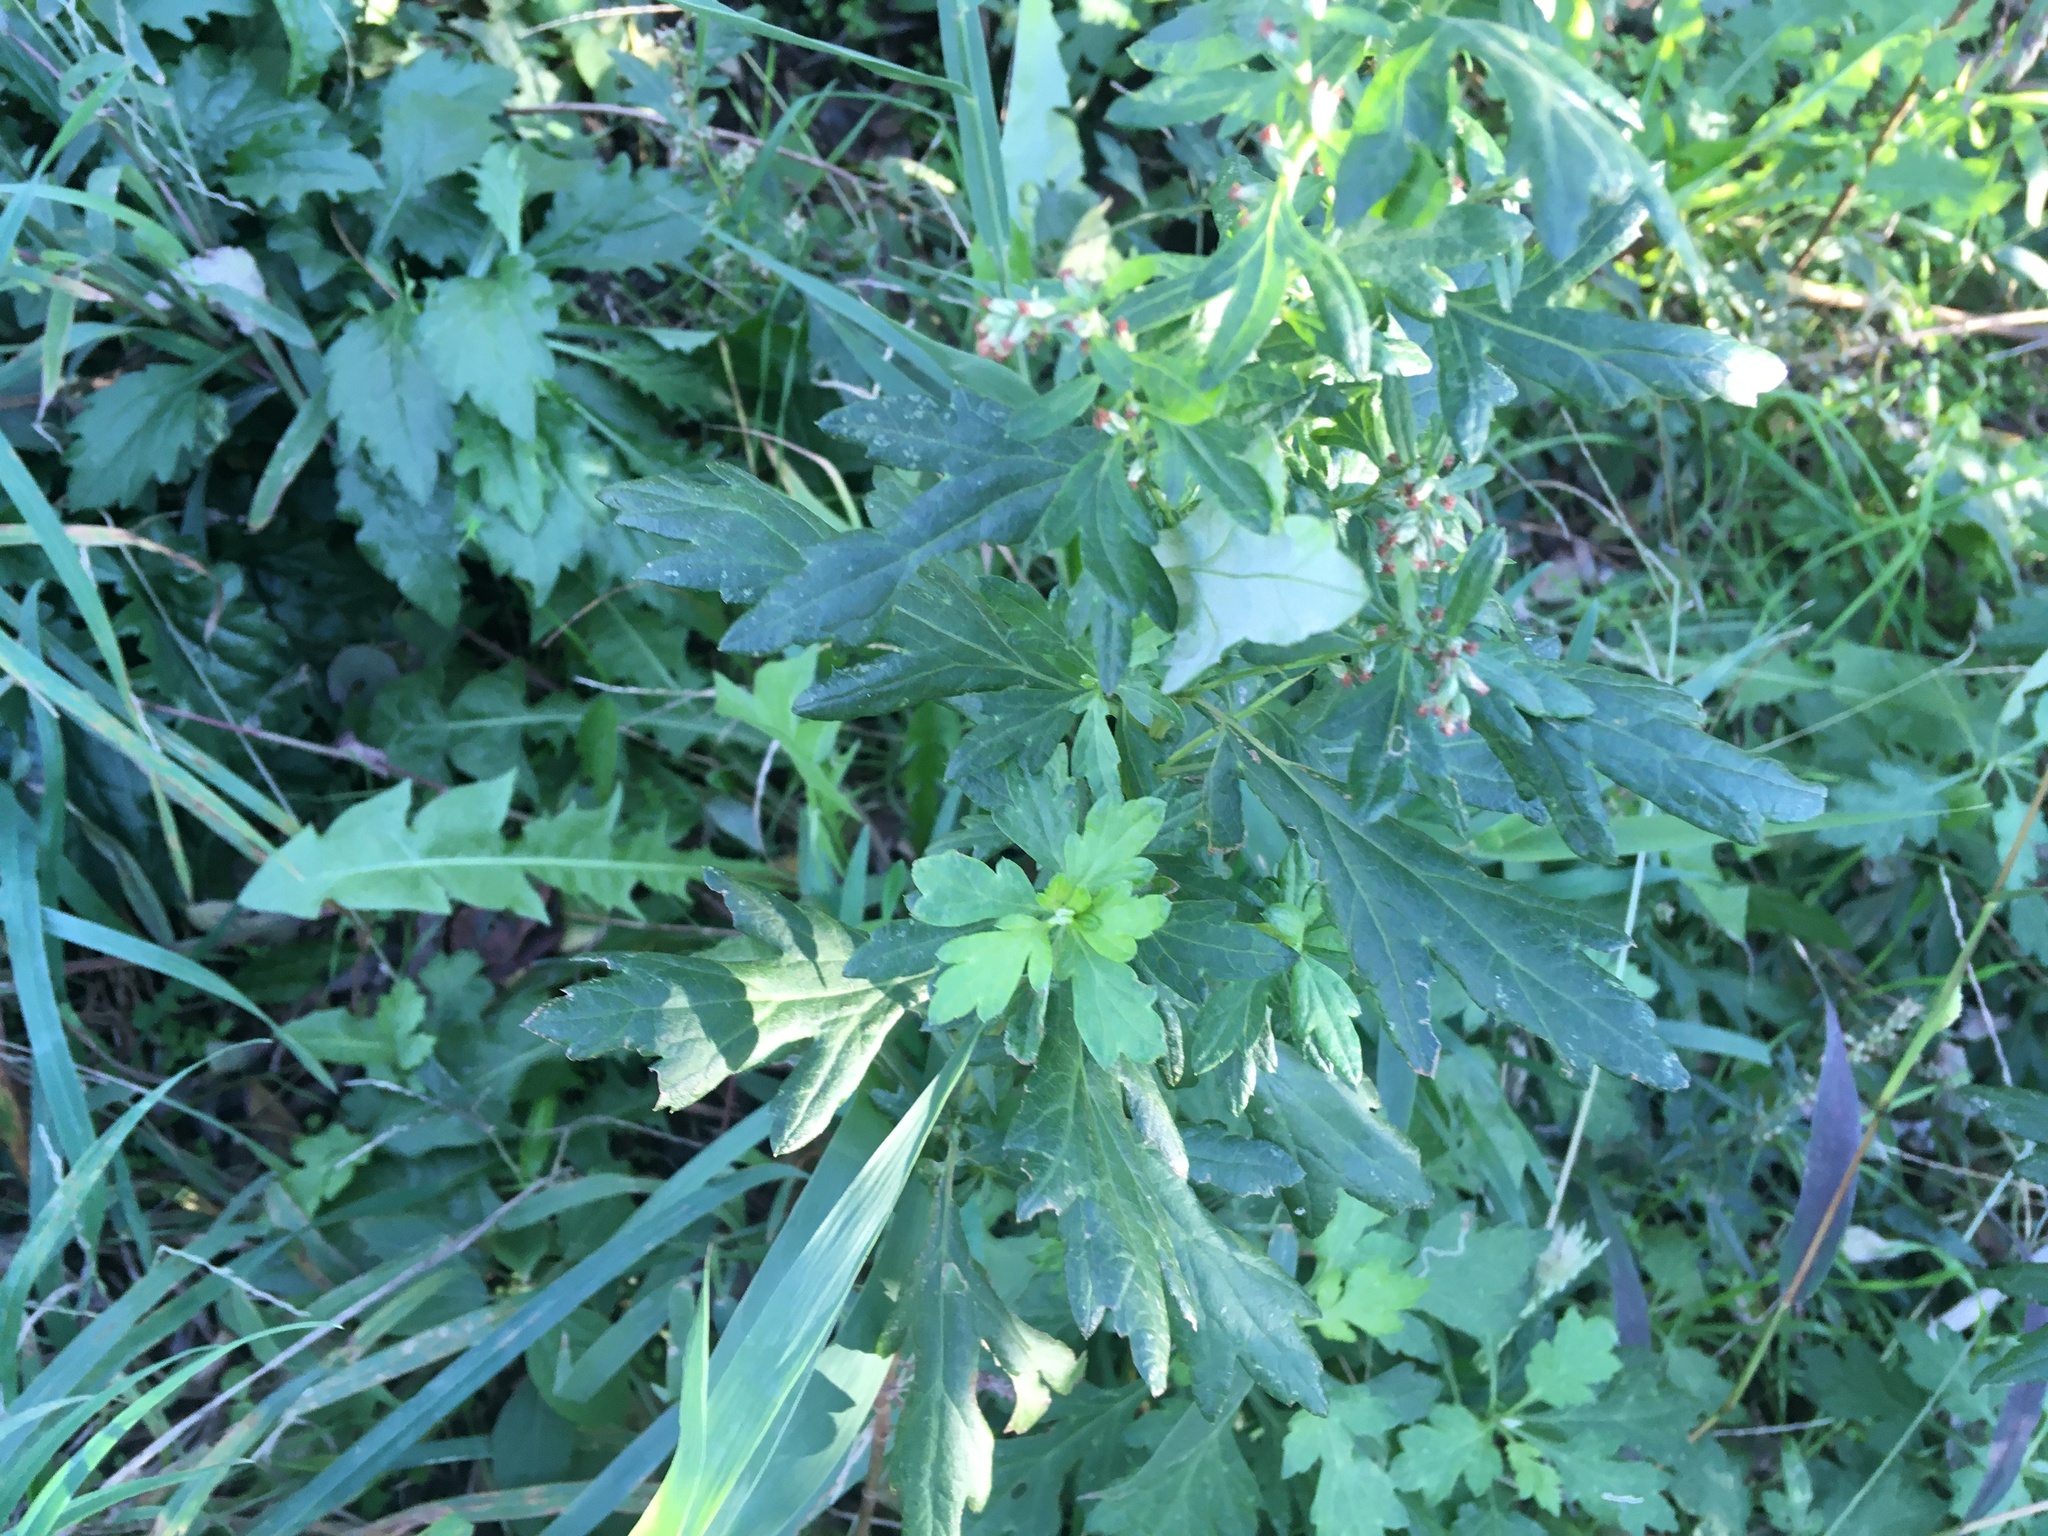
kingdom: Plantae
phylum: Tracheophyta
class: Magnoliopsida
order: Asterales
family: Asteraceae
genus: Artemisia
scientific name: Artemisia vulgaris
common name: Mugwort
